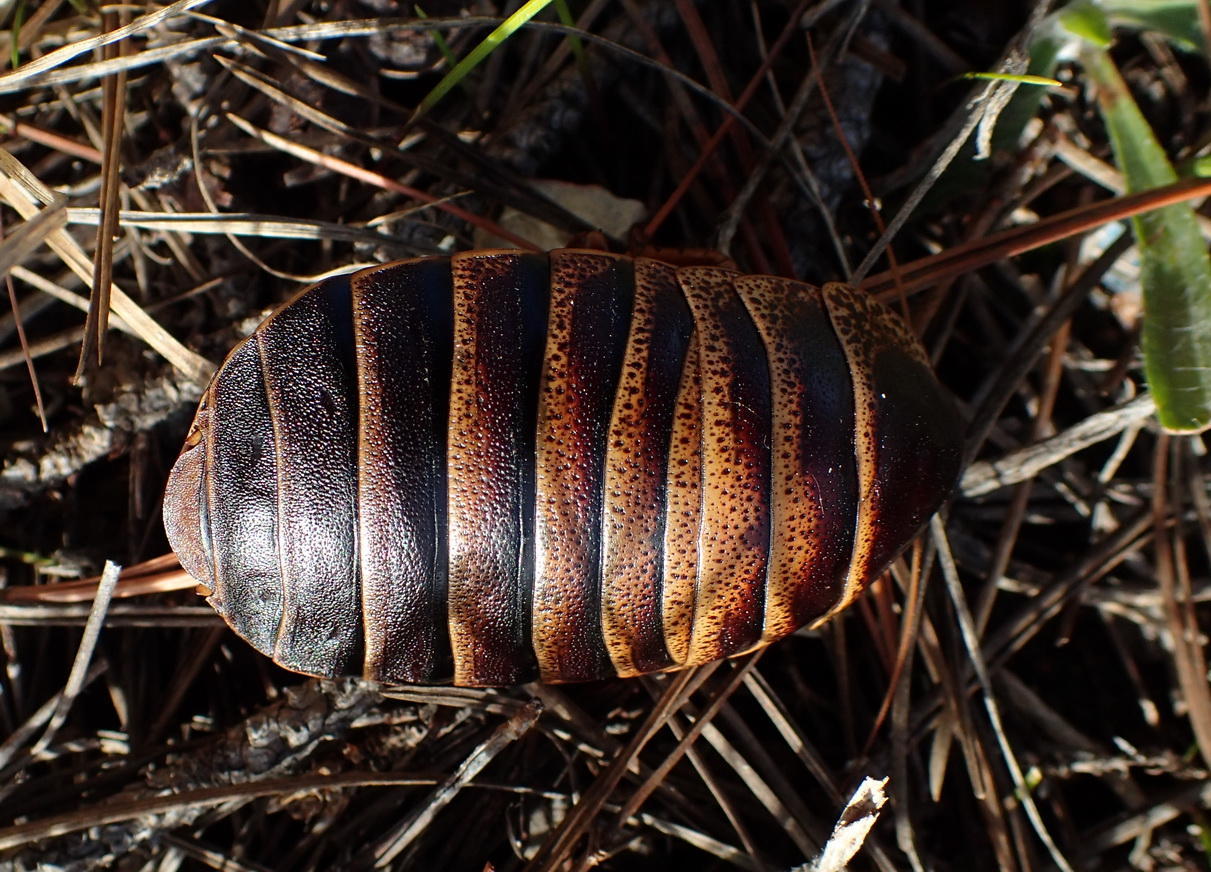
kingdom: Animalia
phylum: Arthropoda
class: Insecta
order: Blattodea
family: Blaberidae
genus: Aptera
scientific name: Aptera fusca
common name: Cape mountain cockroach
